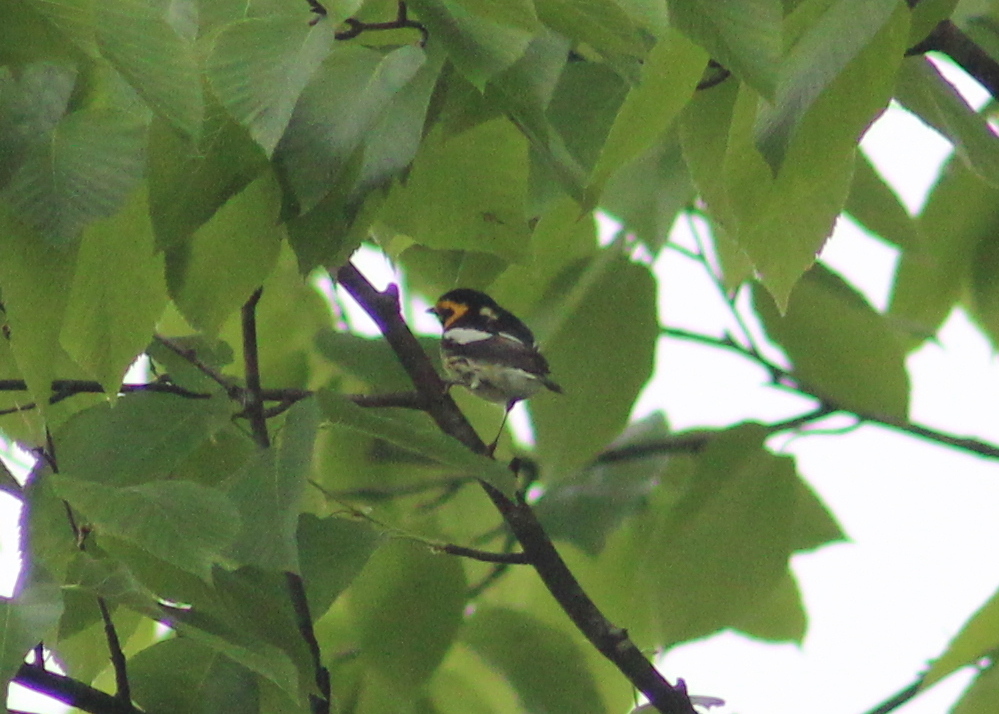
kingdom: Animalia
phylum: Chordata
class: Aves
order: Passeriformes
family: Parulidae
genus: Setophaga
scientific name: Setophaga fusca
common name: Blackburnian warbler
